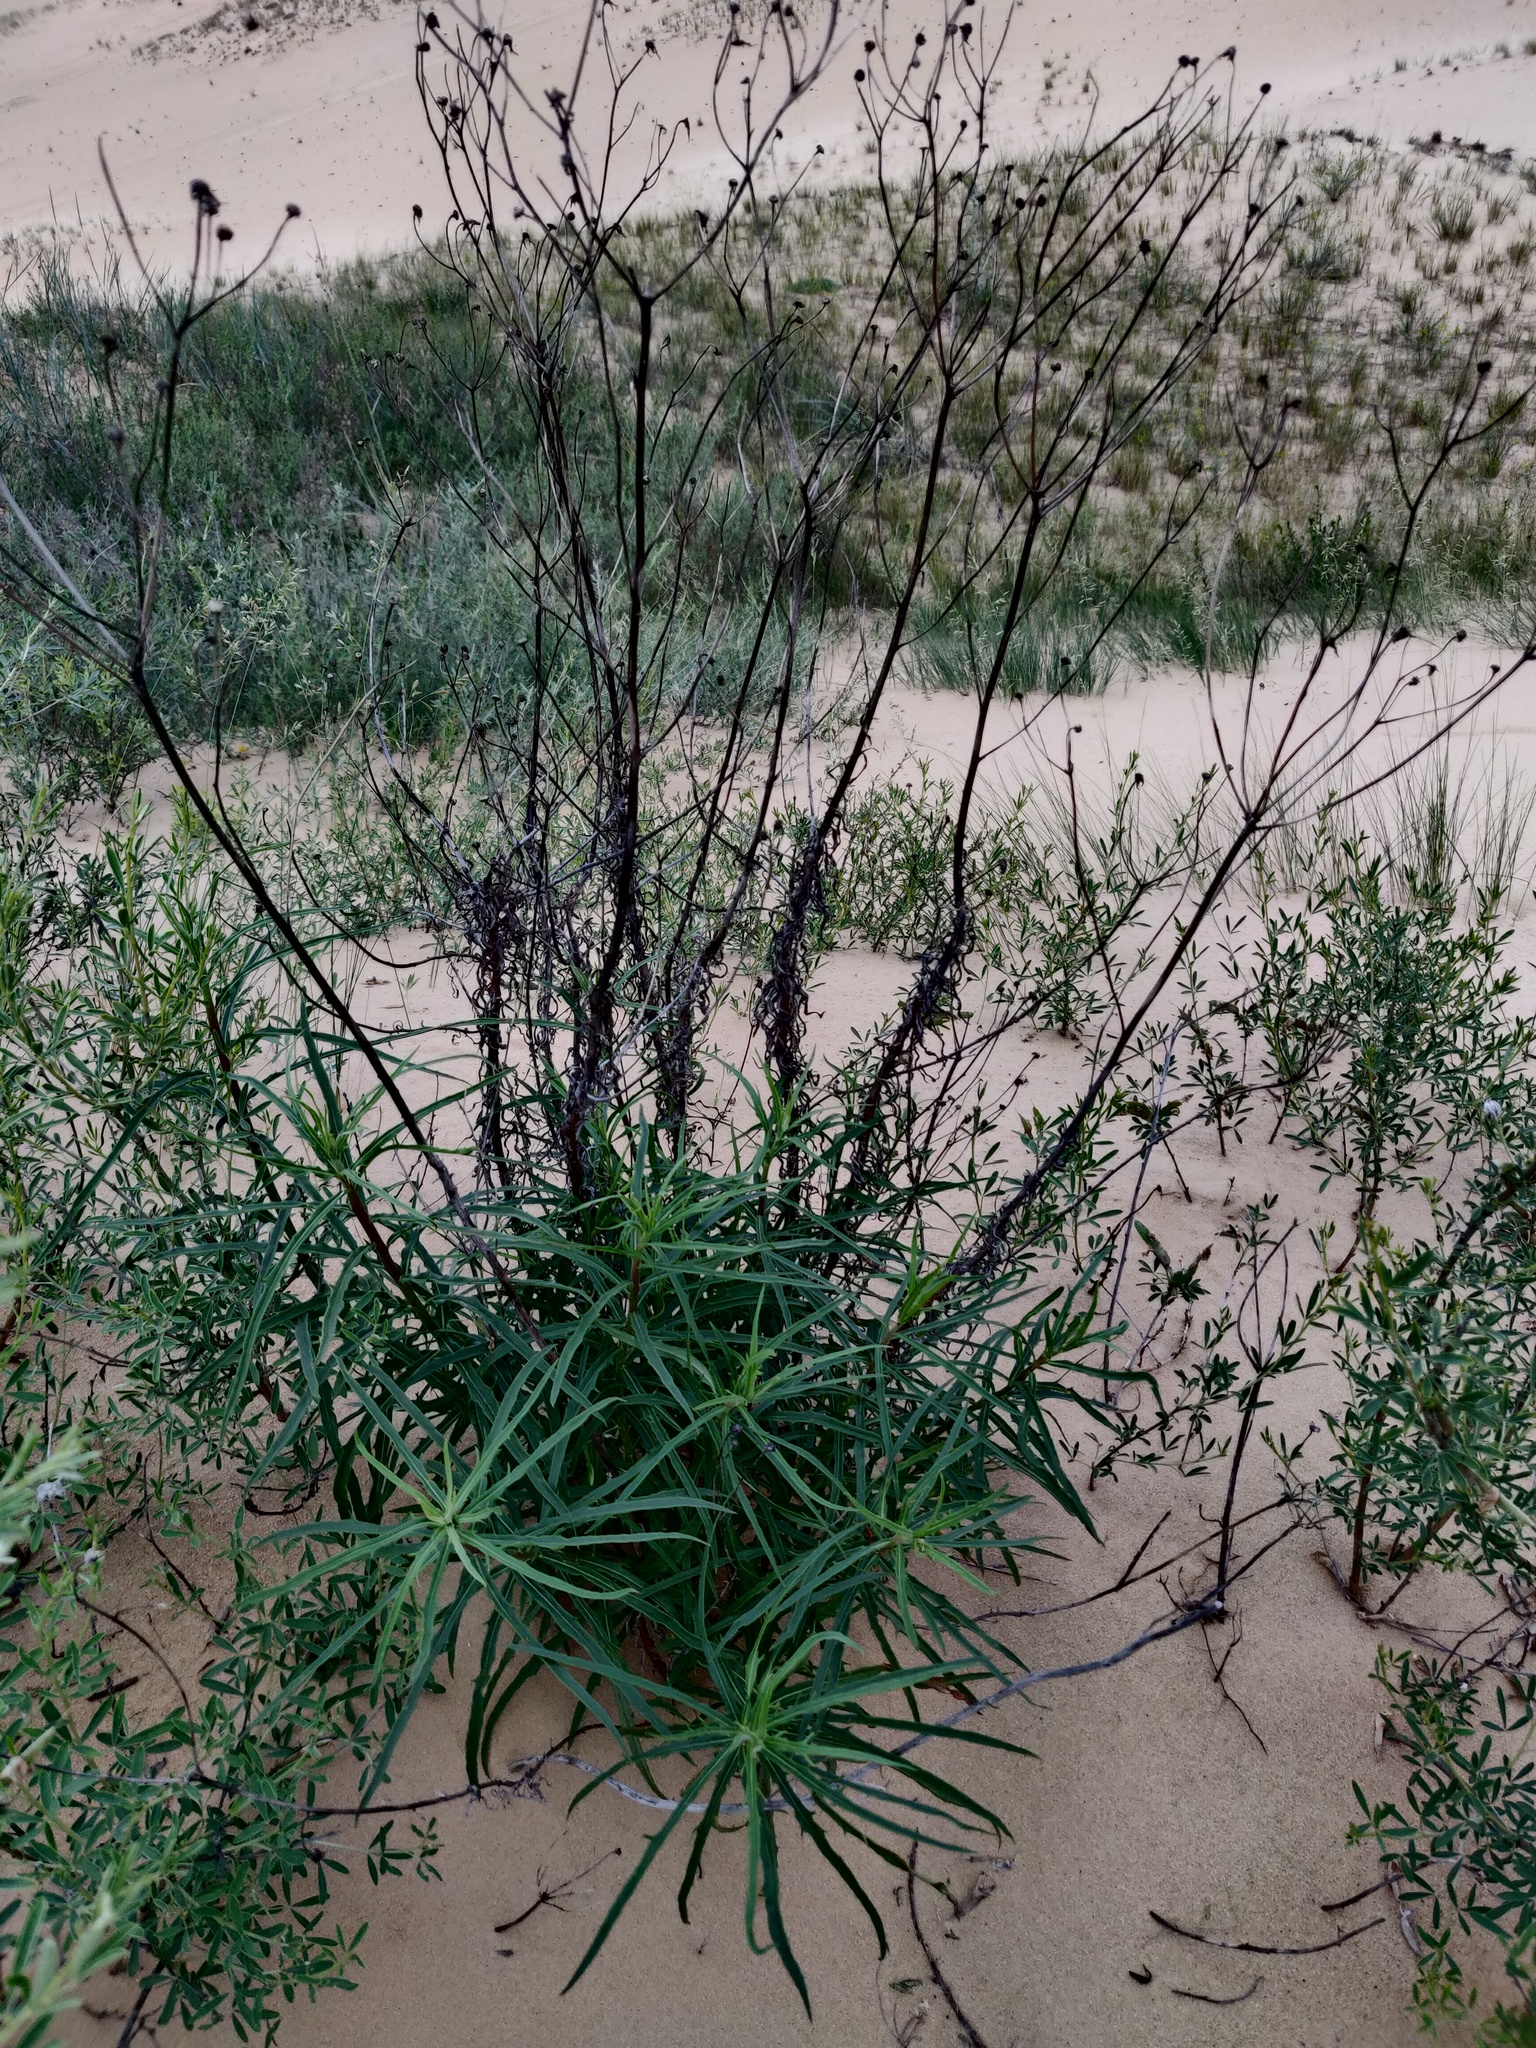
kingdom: Plantae
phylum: Tracheophyta
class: Magnoliopsida
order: Asterales
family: Asteraceae
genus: Hieracium
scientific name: Hieracium umbellatum
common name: Northern hawkweed
